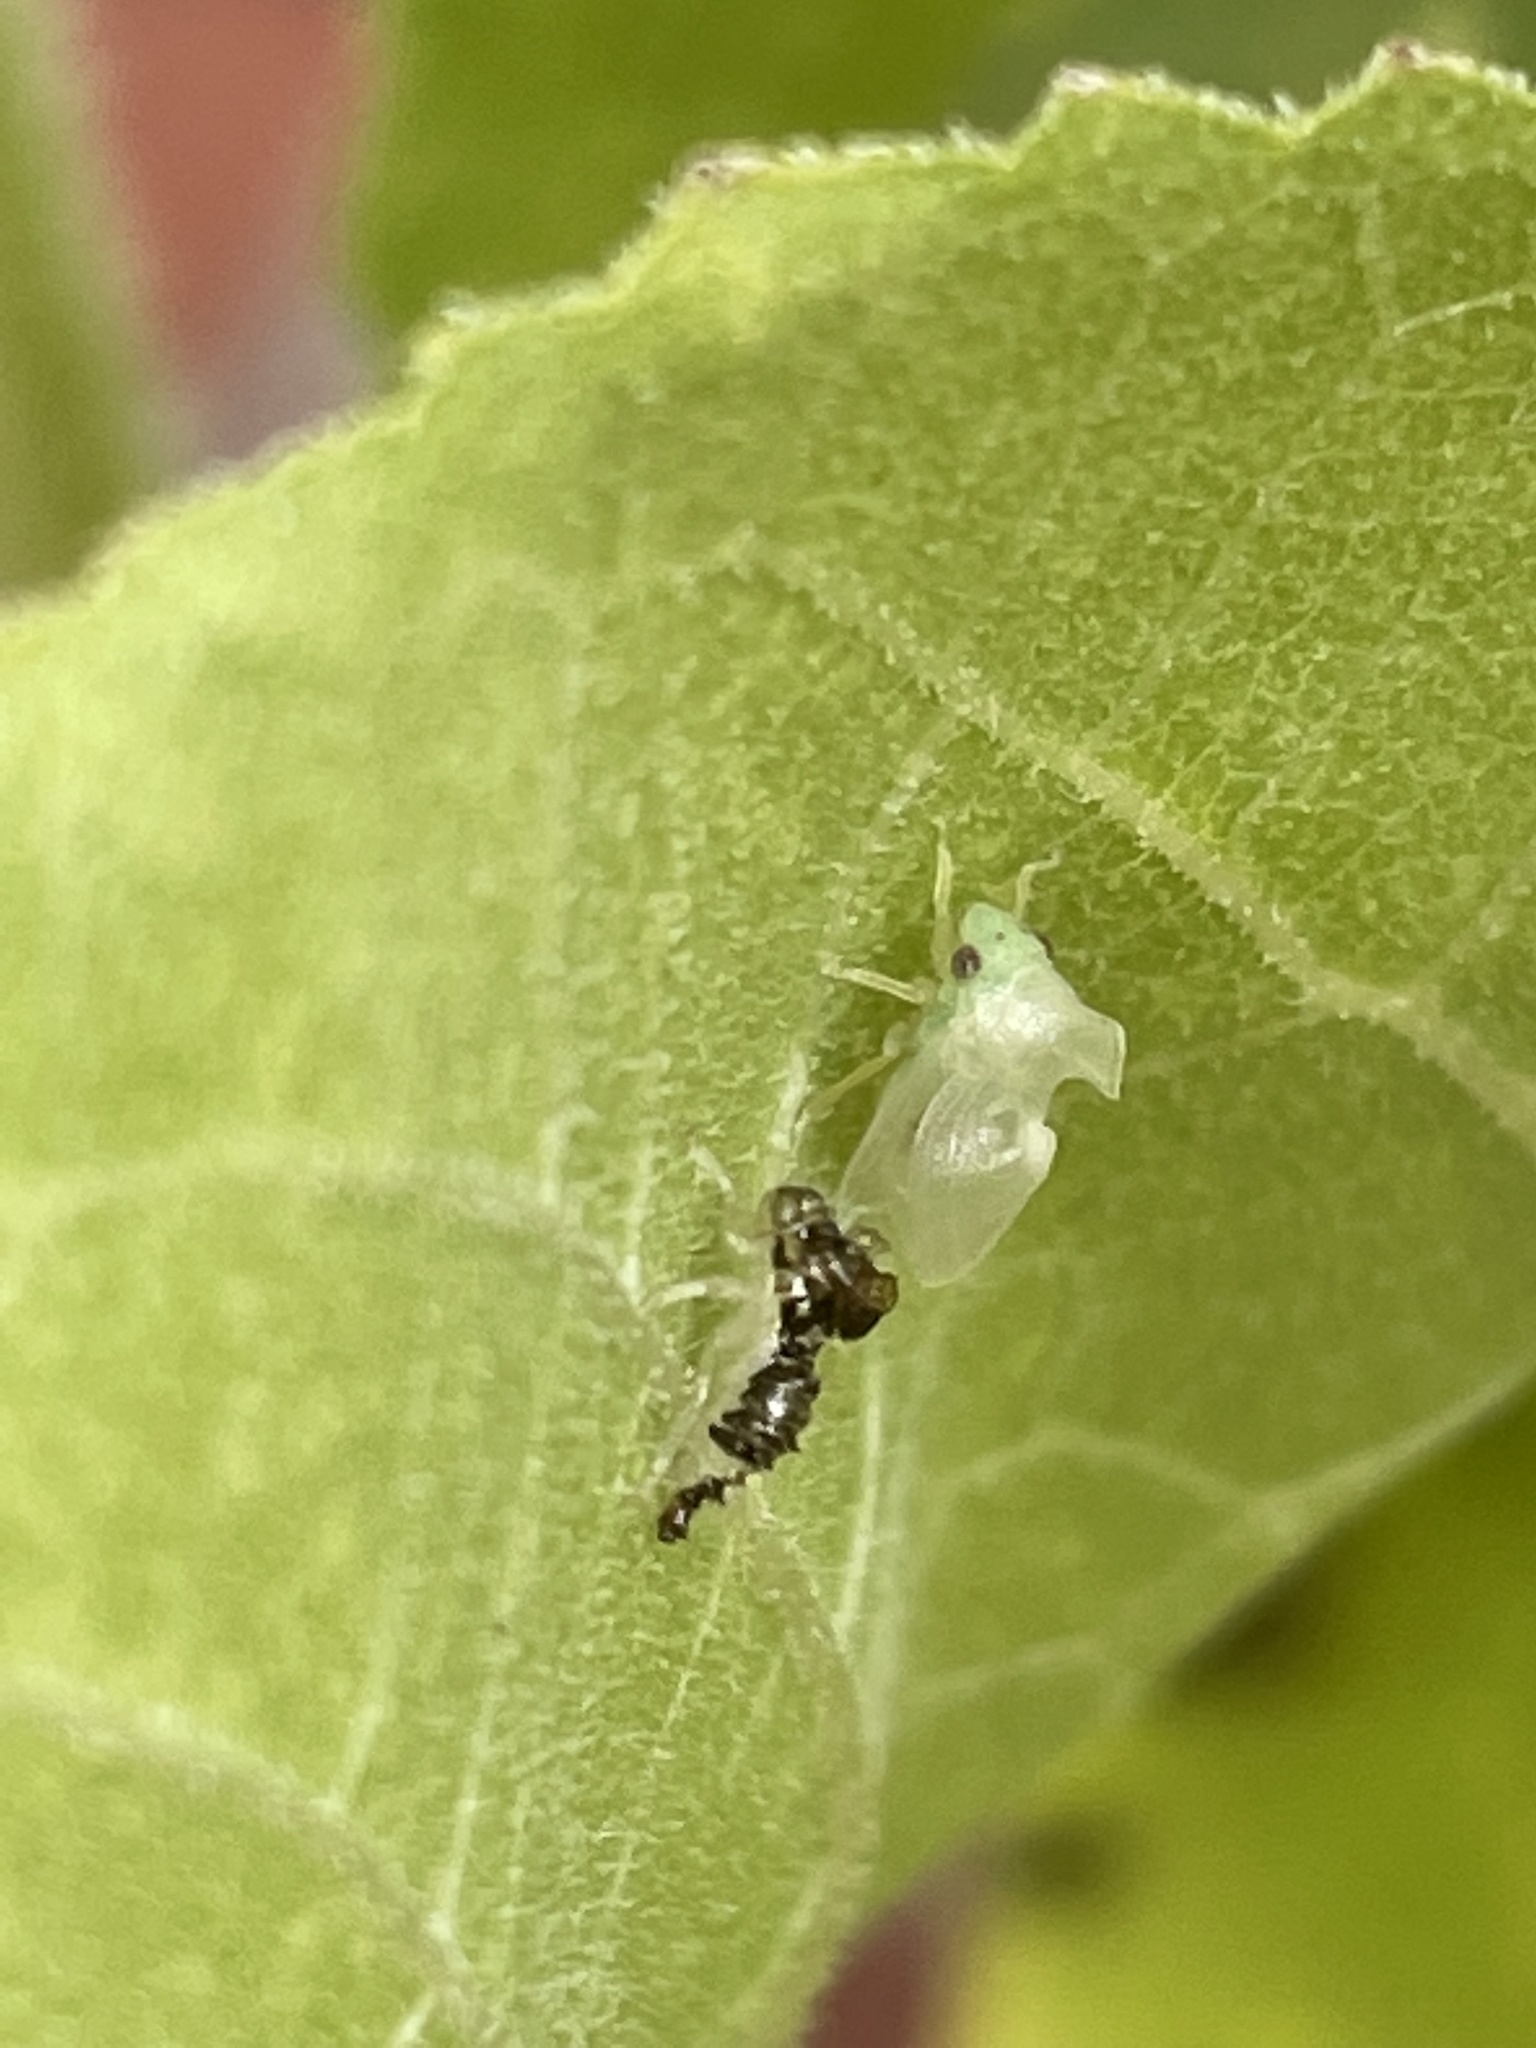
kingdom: Animalia
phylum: Arthropoda
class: Insecta
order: Hemiptera
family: Membracidae
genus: Entylia
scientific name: Entylia carinata
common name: Keeled treehopper
